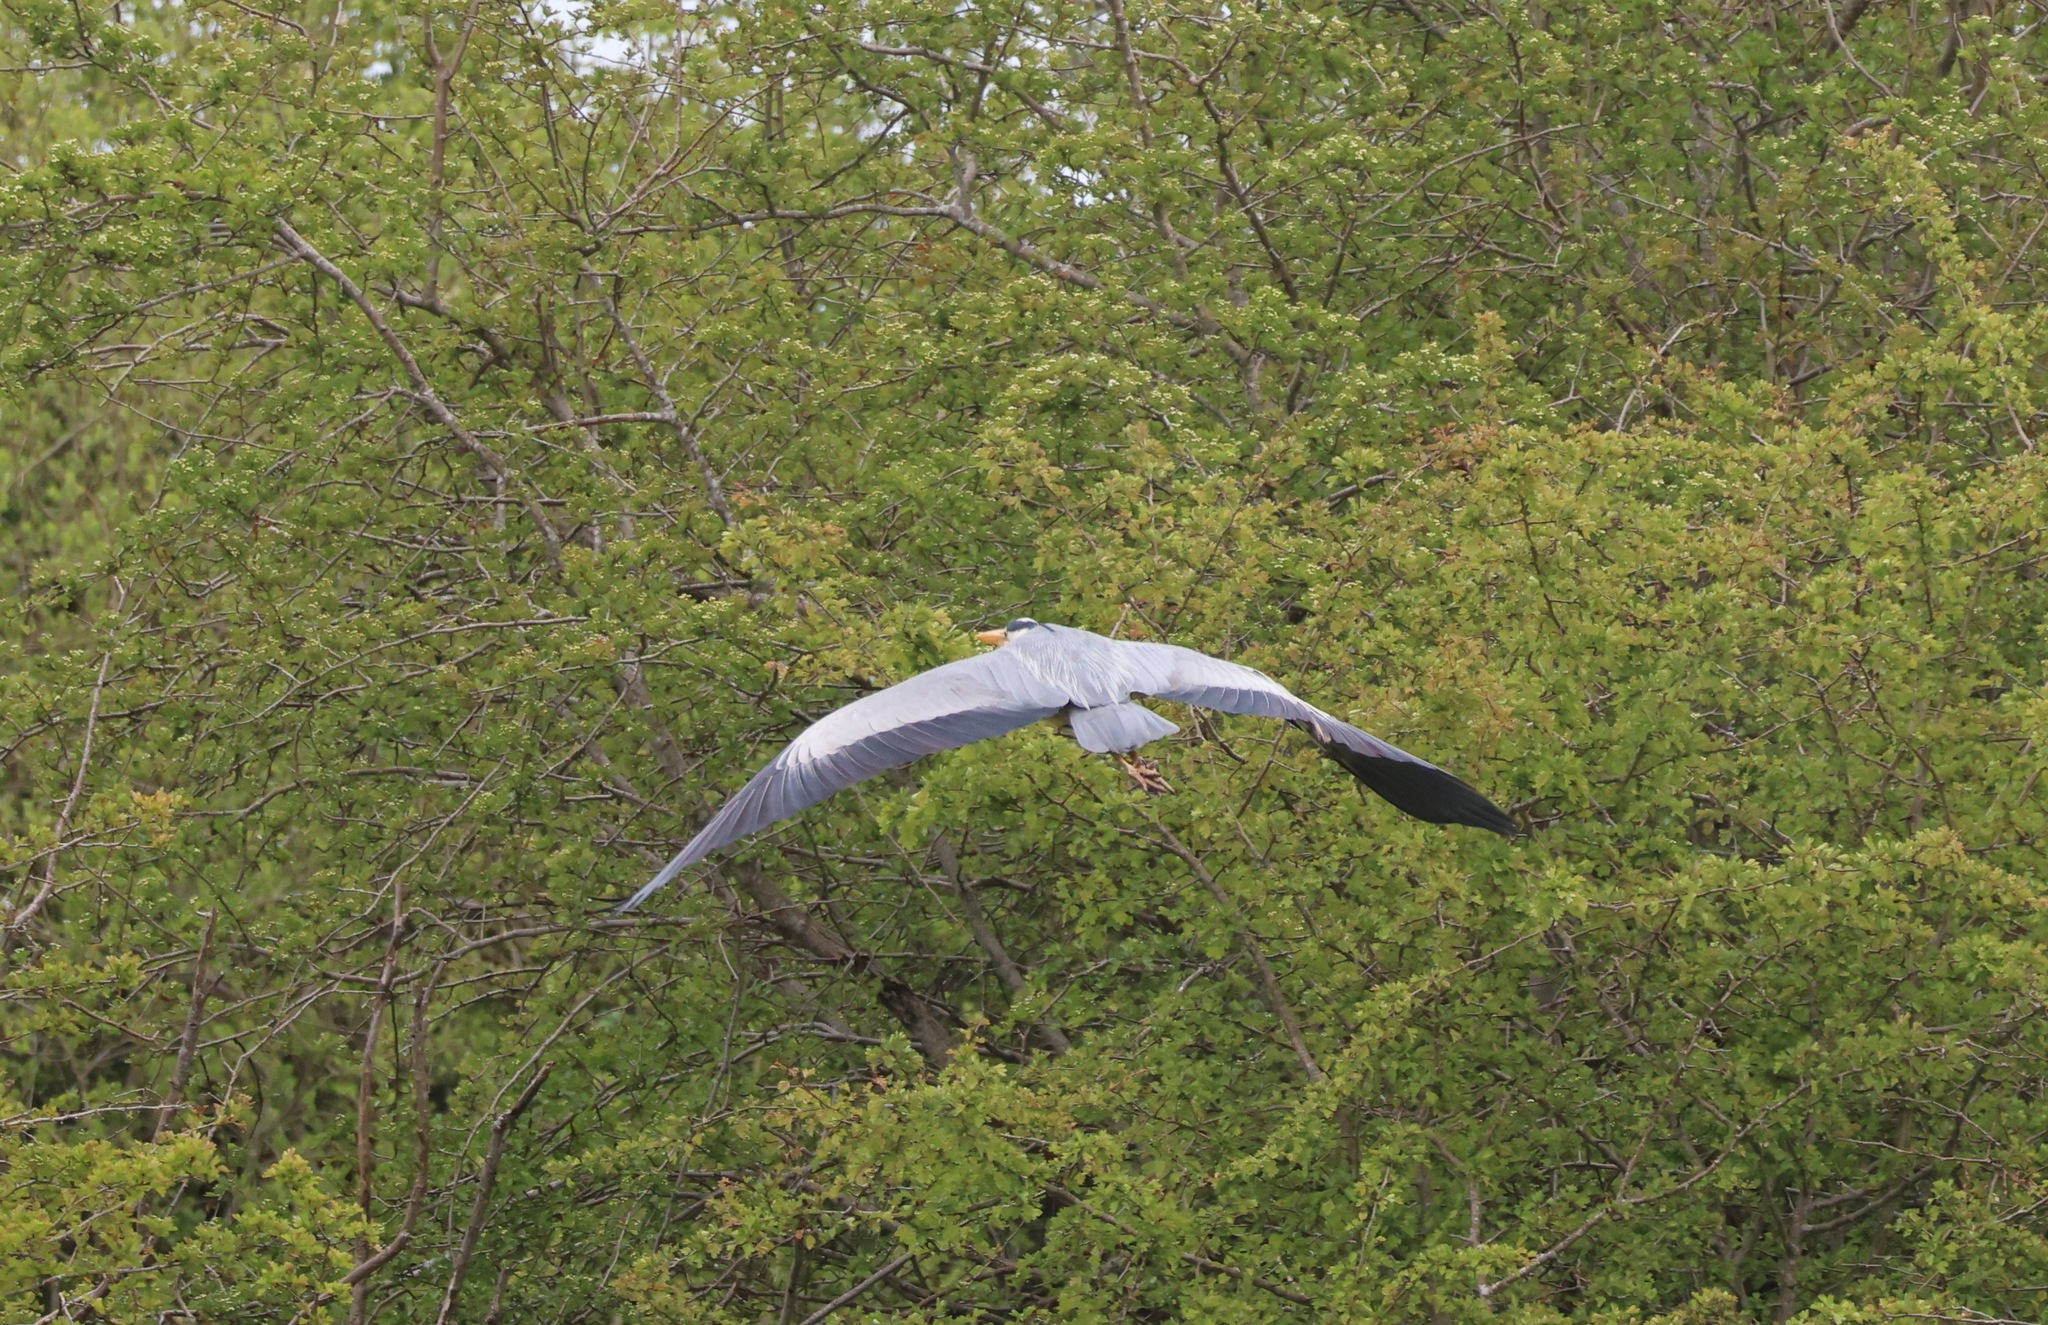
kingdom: Animalia
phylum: Chordata
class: Aves
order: Pelecaniformes
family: Ardeidae
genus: Ardea
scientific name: Ardea cinerea
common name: Grey heron
